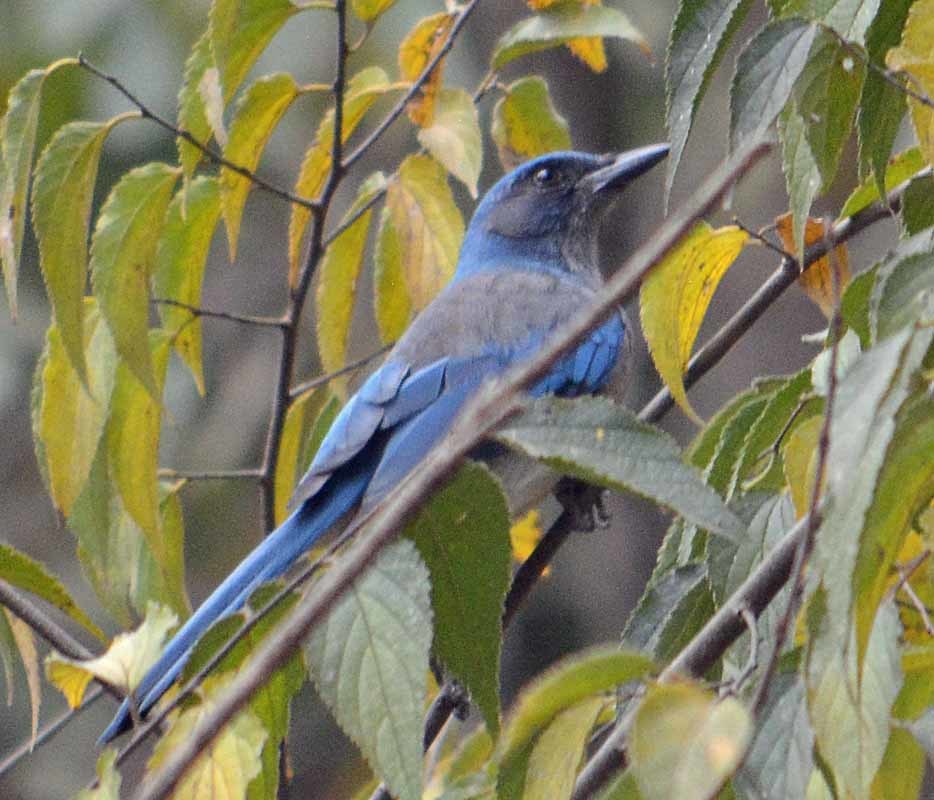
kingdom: Animalia
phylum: Chordata
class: Aves
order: Passeriformes
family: Corvidae
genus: Aphelocoma
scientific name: Aphelocoma woodhouseii
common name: Woodhouse's scrub-jay
